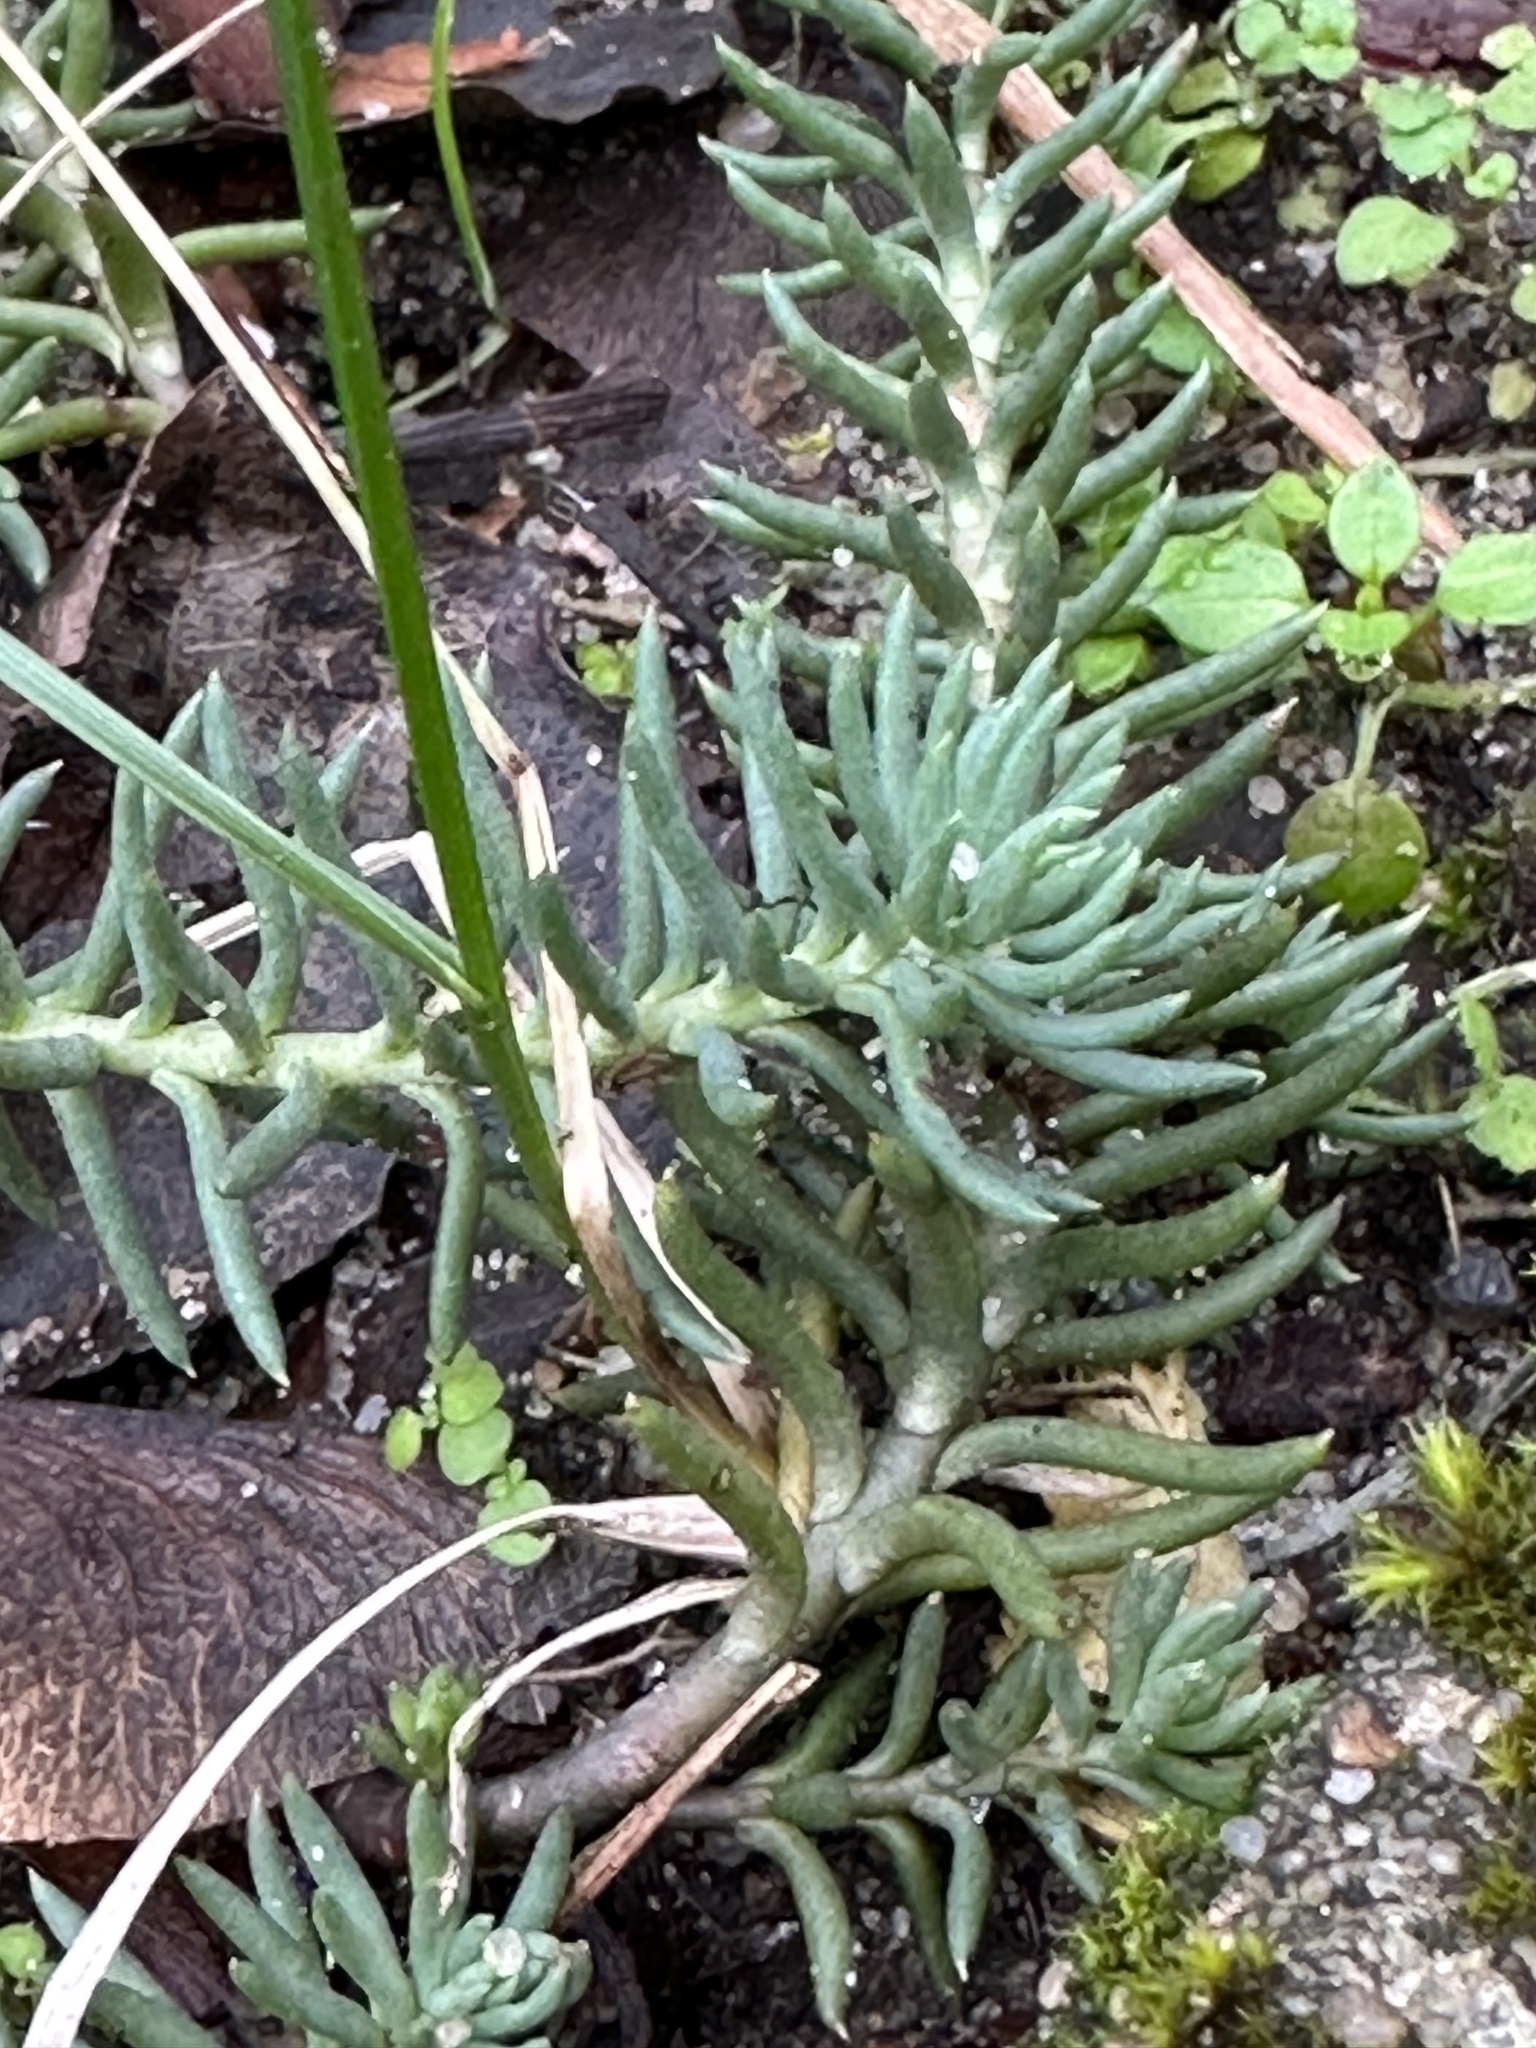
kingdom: Plantae
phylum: Tracheophyta
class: Magnoliopsida
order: Saxifragales
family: Crassulaceae
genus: Petrosedum
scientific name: Petrosedum rupestre
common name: Jenny's stonecrop
